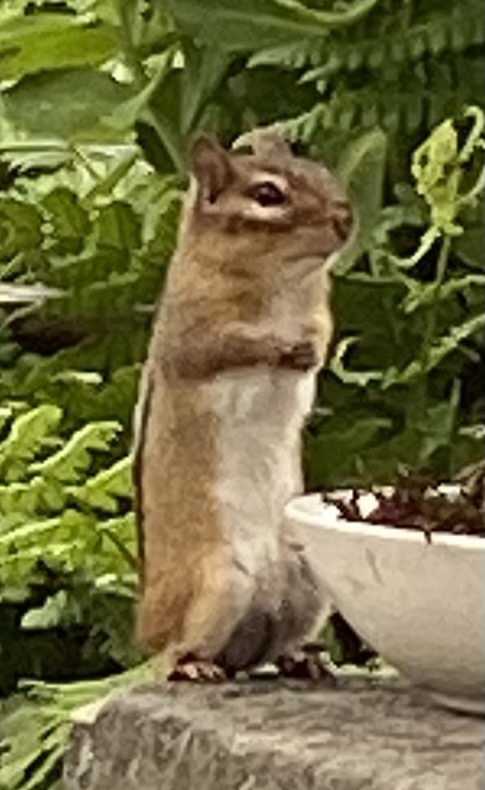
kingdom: Animalia
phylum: Chordata
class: Mammalia
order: Rodentia
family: Sciuridae
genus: Tamias
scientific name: Tamias striatus
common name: Eastern chipmunk
